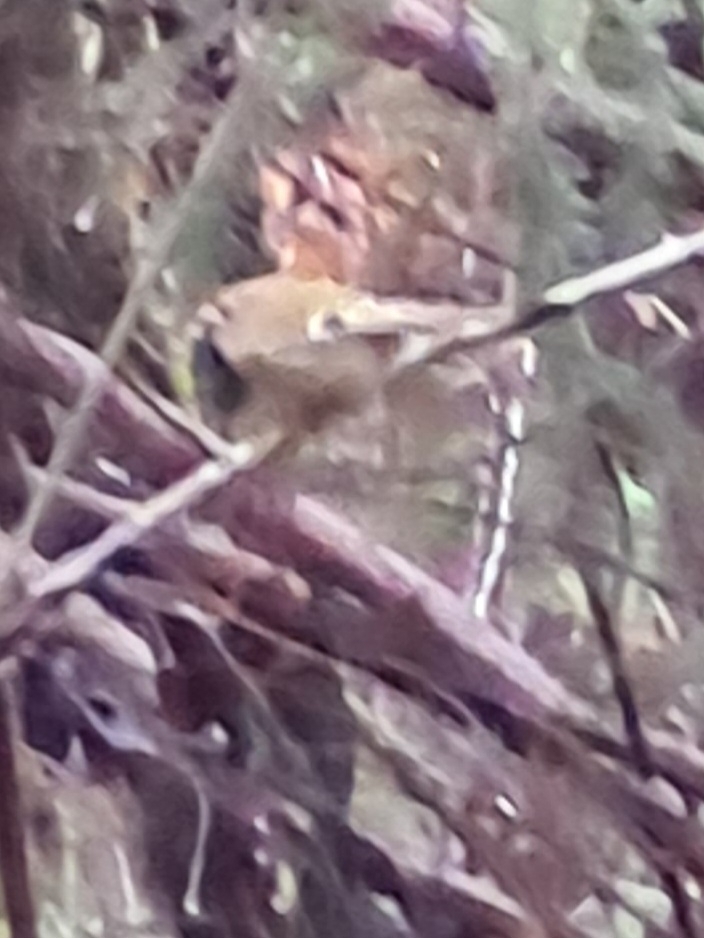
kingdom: Animalia
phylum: Chordata
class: Aves
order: Passeriformes
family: Regulidae
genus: Regulus
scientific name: Regulus regulus
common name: Goldcrest
